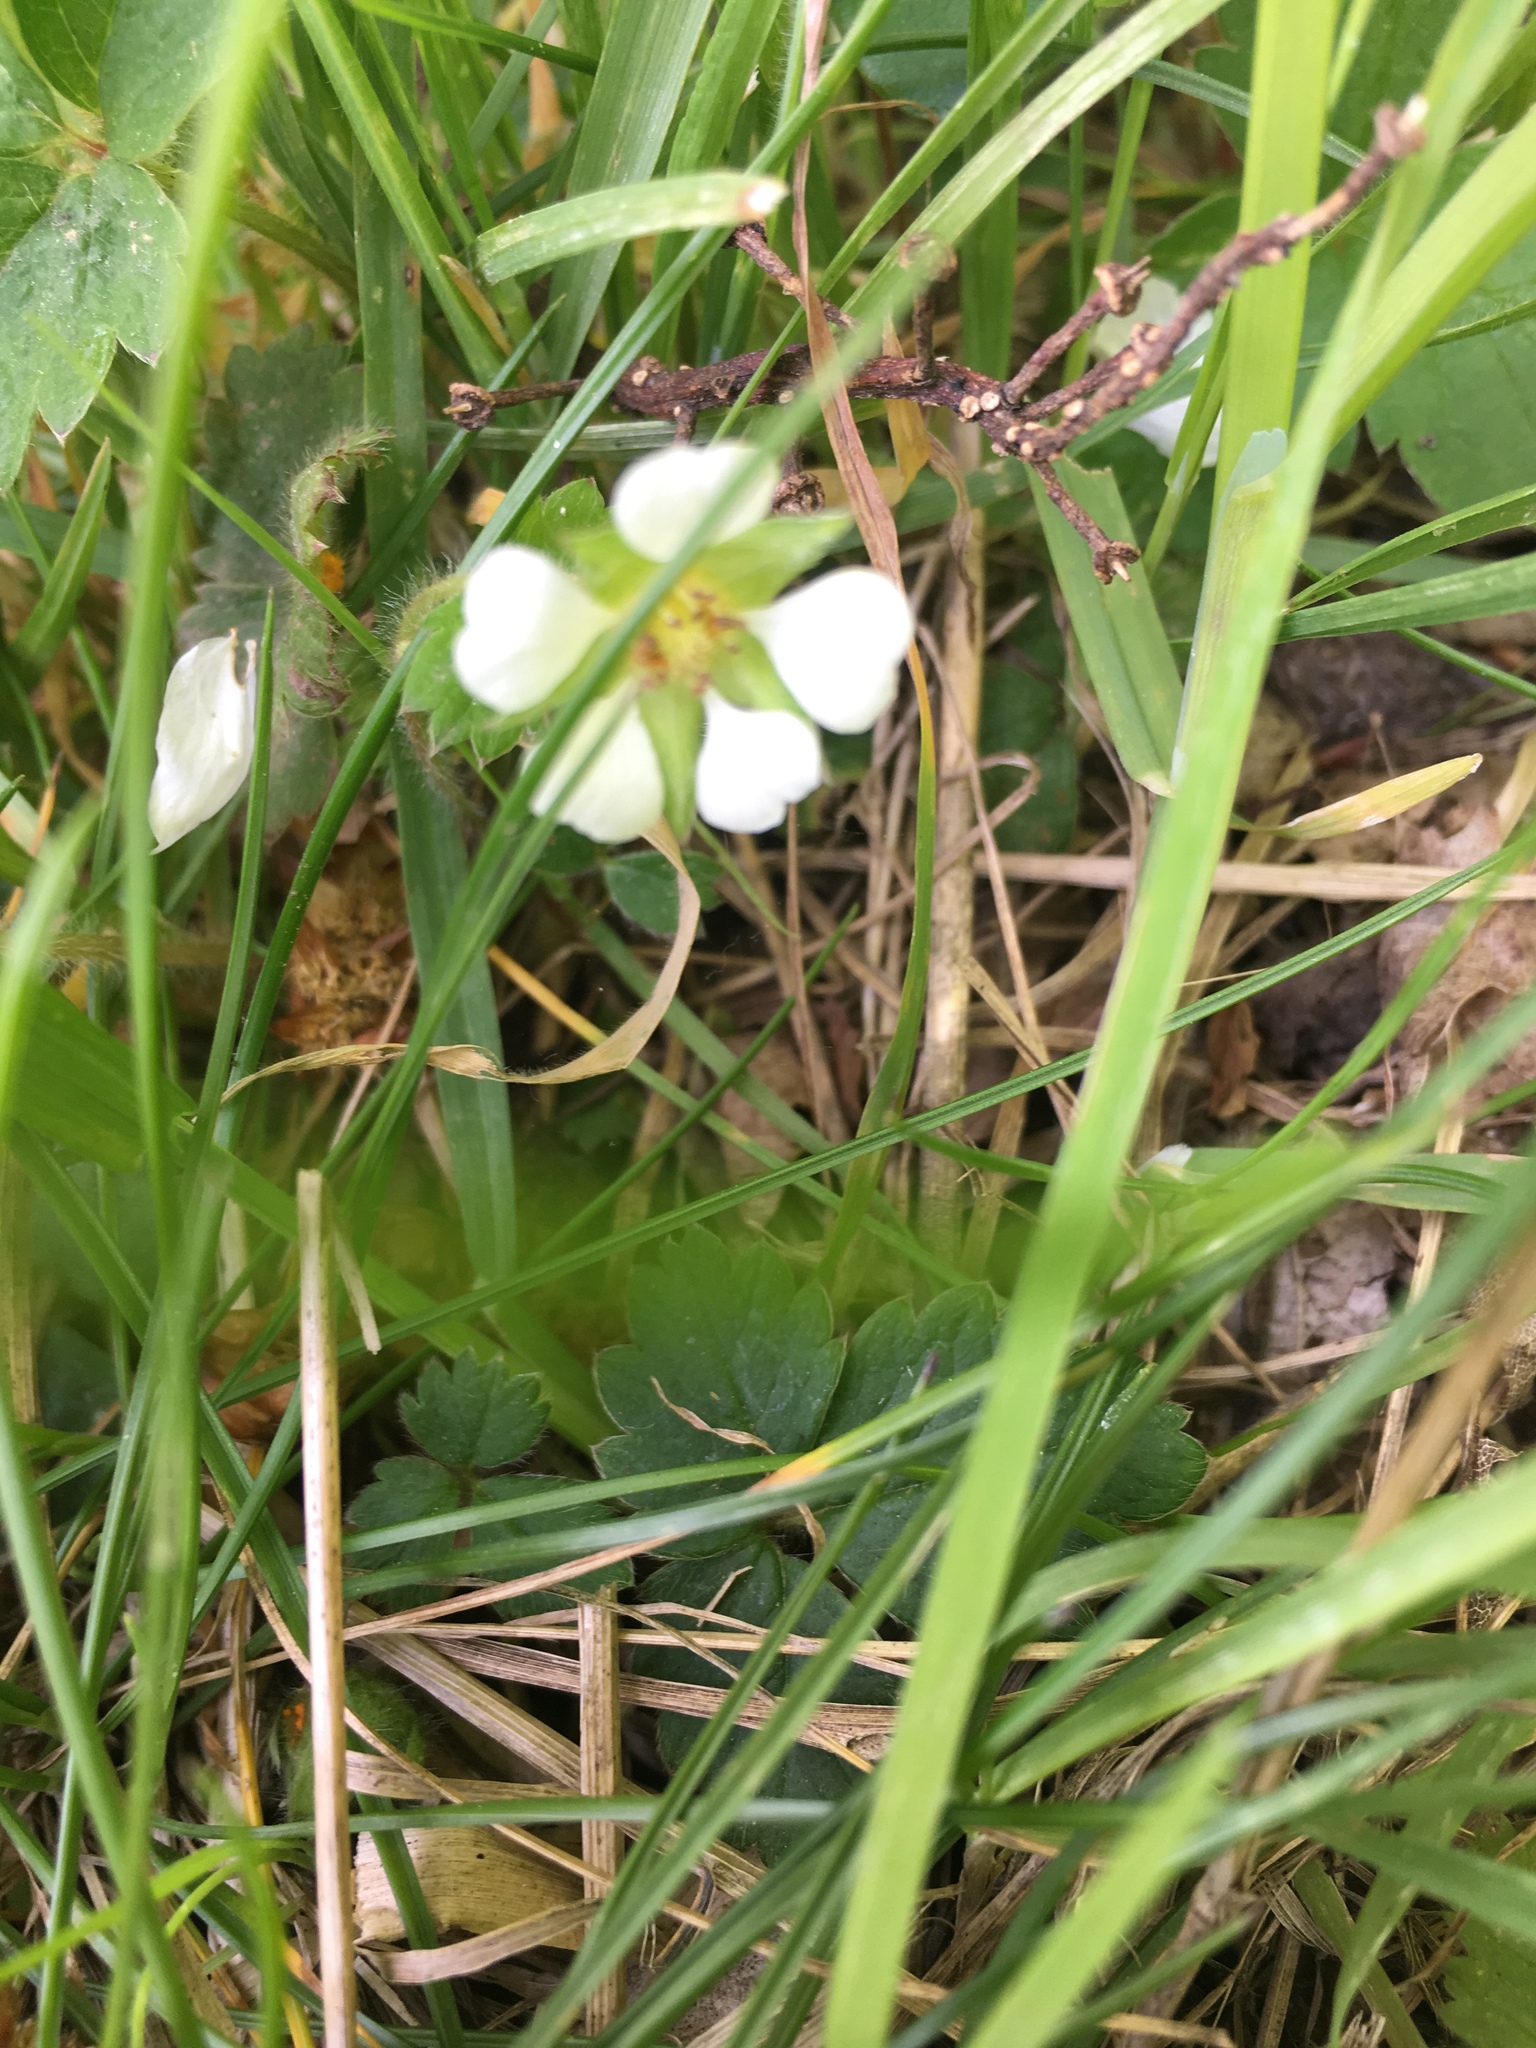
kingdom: Plantae
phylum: Tracheophyta
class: Magnoliopsida
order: Rosales
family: Rosaceae
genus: Potentilla
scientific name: Potentilla sterilis
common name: Barren strawberry
